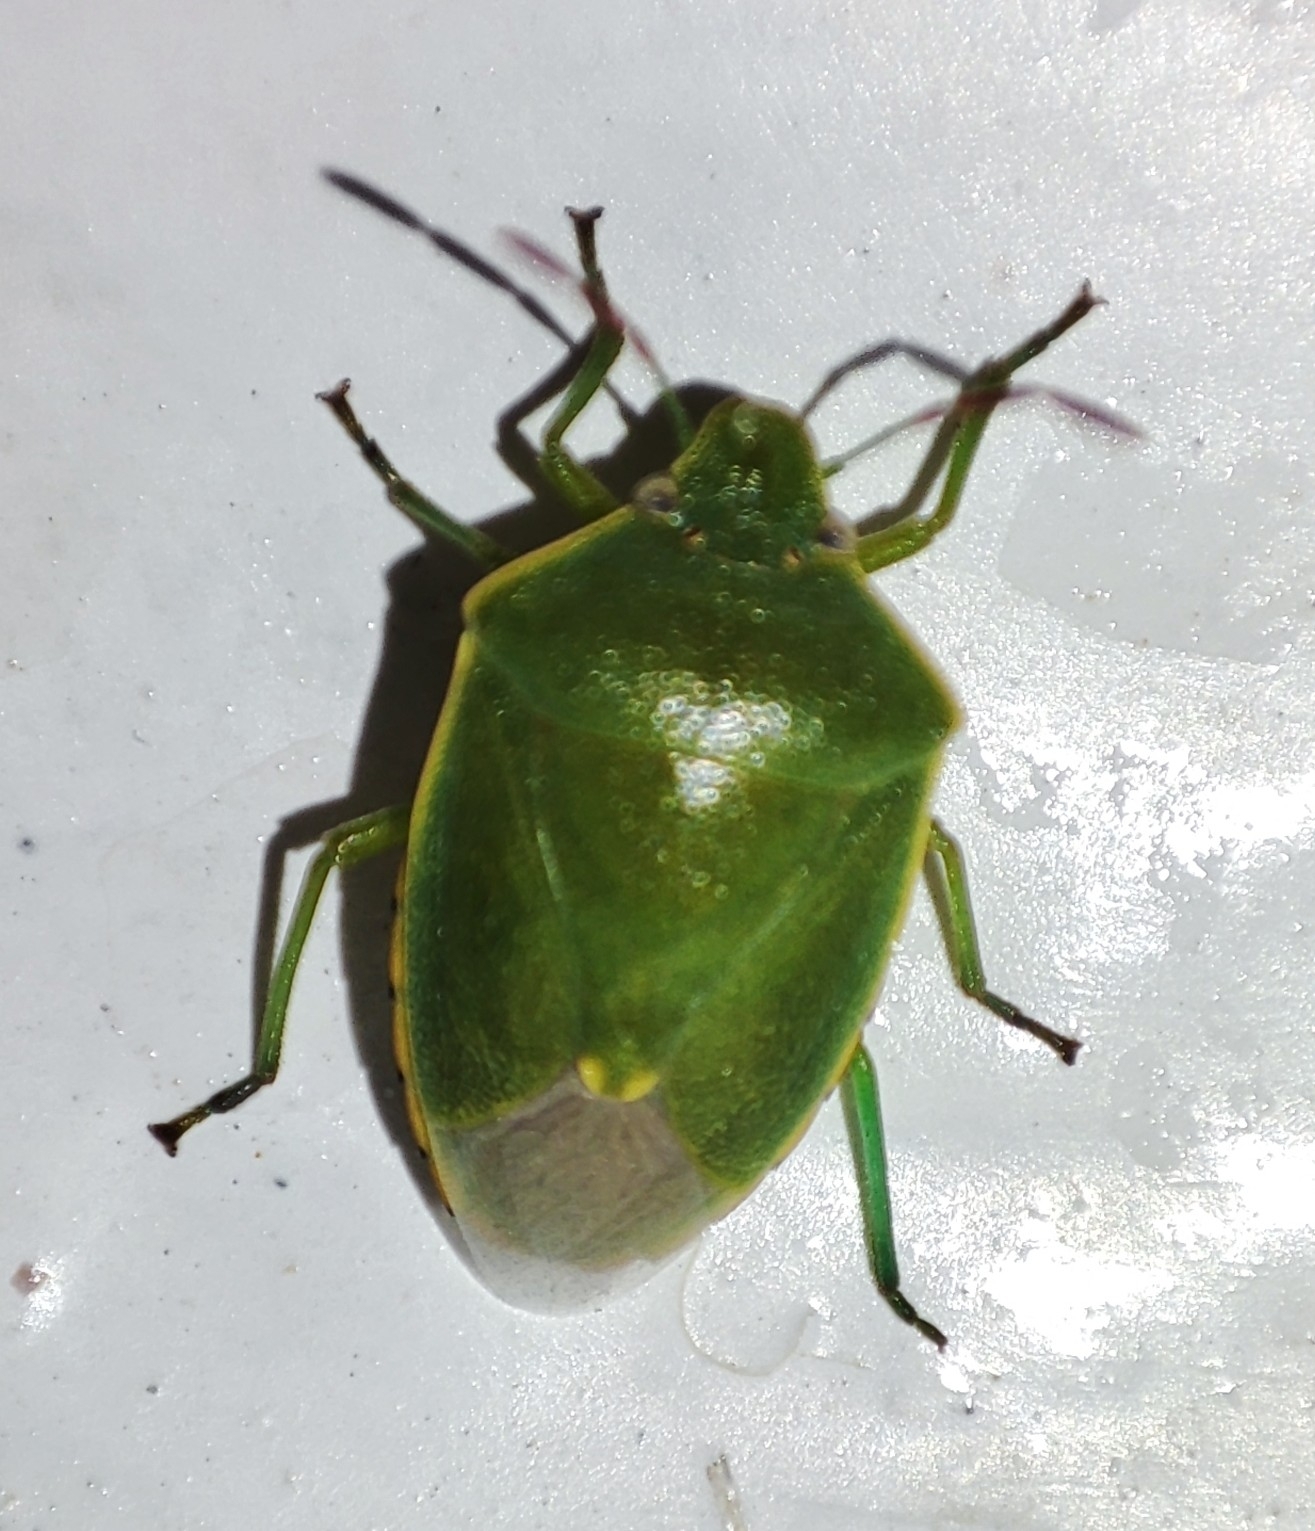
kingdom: Animalia
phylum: Arthropoda
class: Insecta
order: Hemiptera
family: Pentatomidae
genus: Acrosternum
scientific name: Acrosternum heegeri
